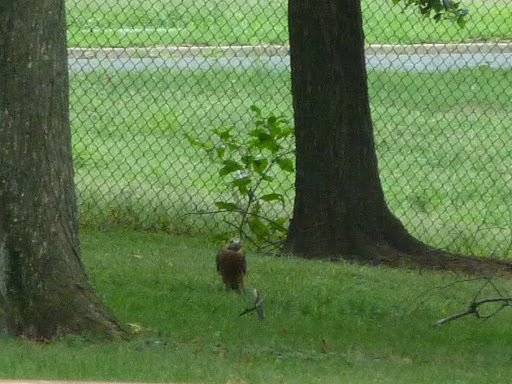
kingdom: Animalia
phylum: Chordata
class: Aves
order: Accipitriformes
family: Accipitridae
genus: Buteo
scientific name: Buteo lineatus
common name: Red-shouldered hawk
